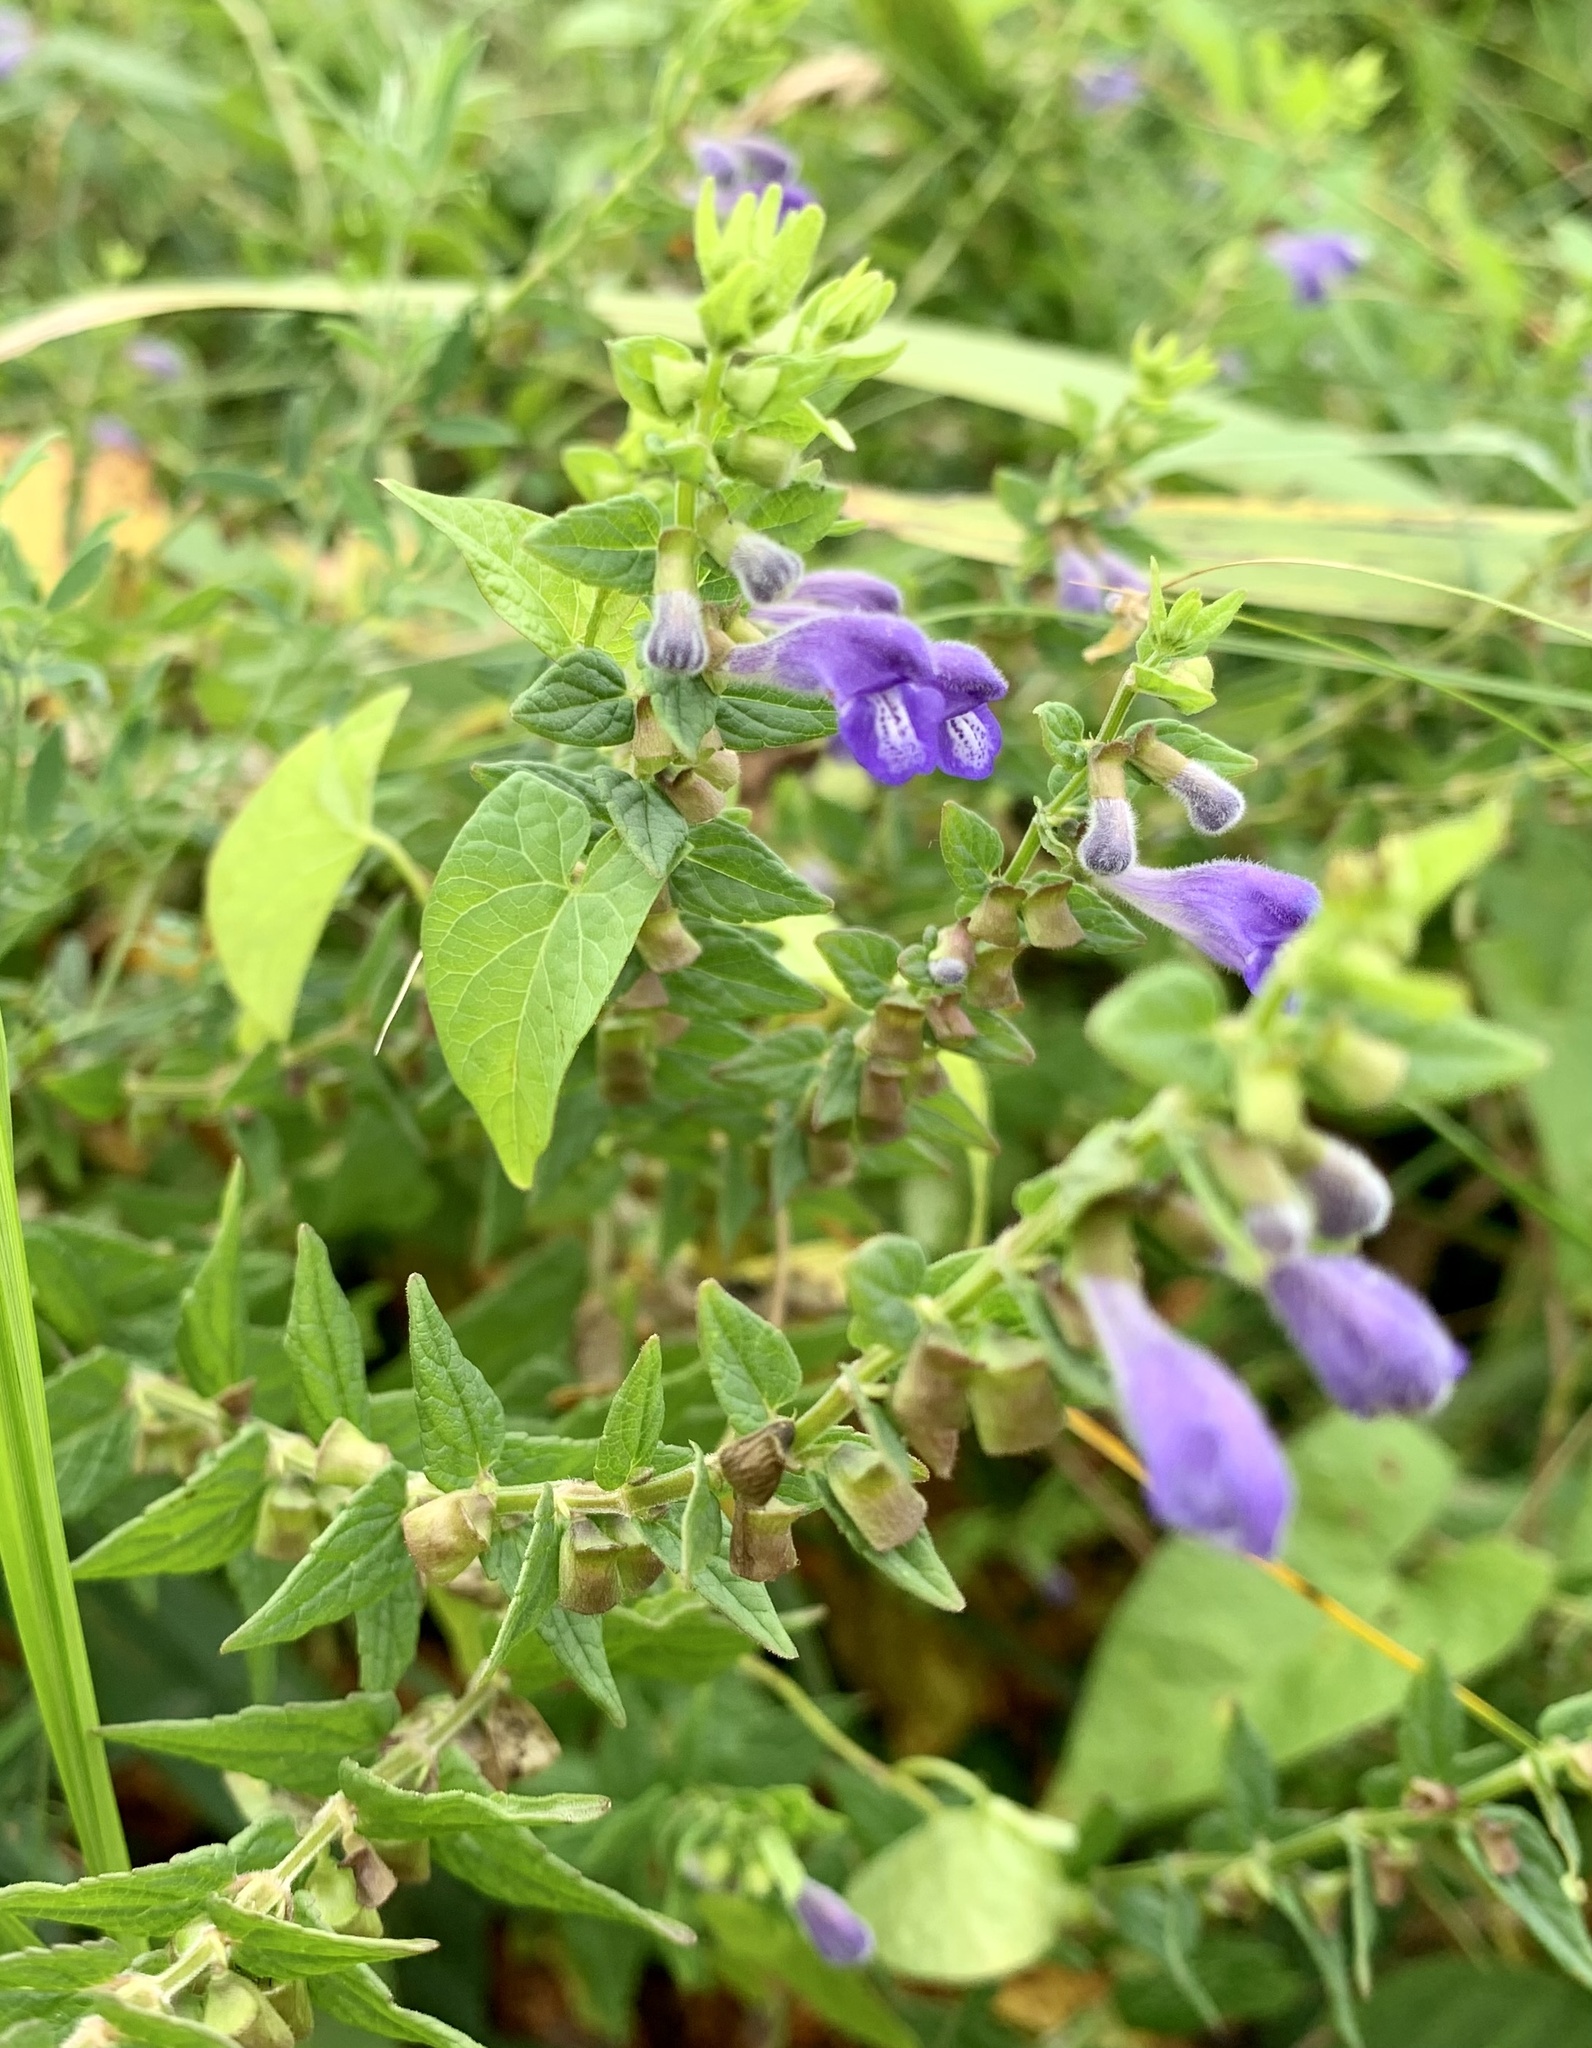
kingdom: Plantae
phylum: Tracheophyta
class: Magnoliopsida
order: Lamiales
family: Lamiaceae
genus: Scutellaria
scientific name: Scutellaria galericulata
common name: Skullcap
